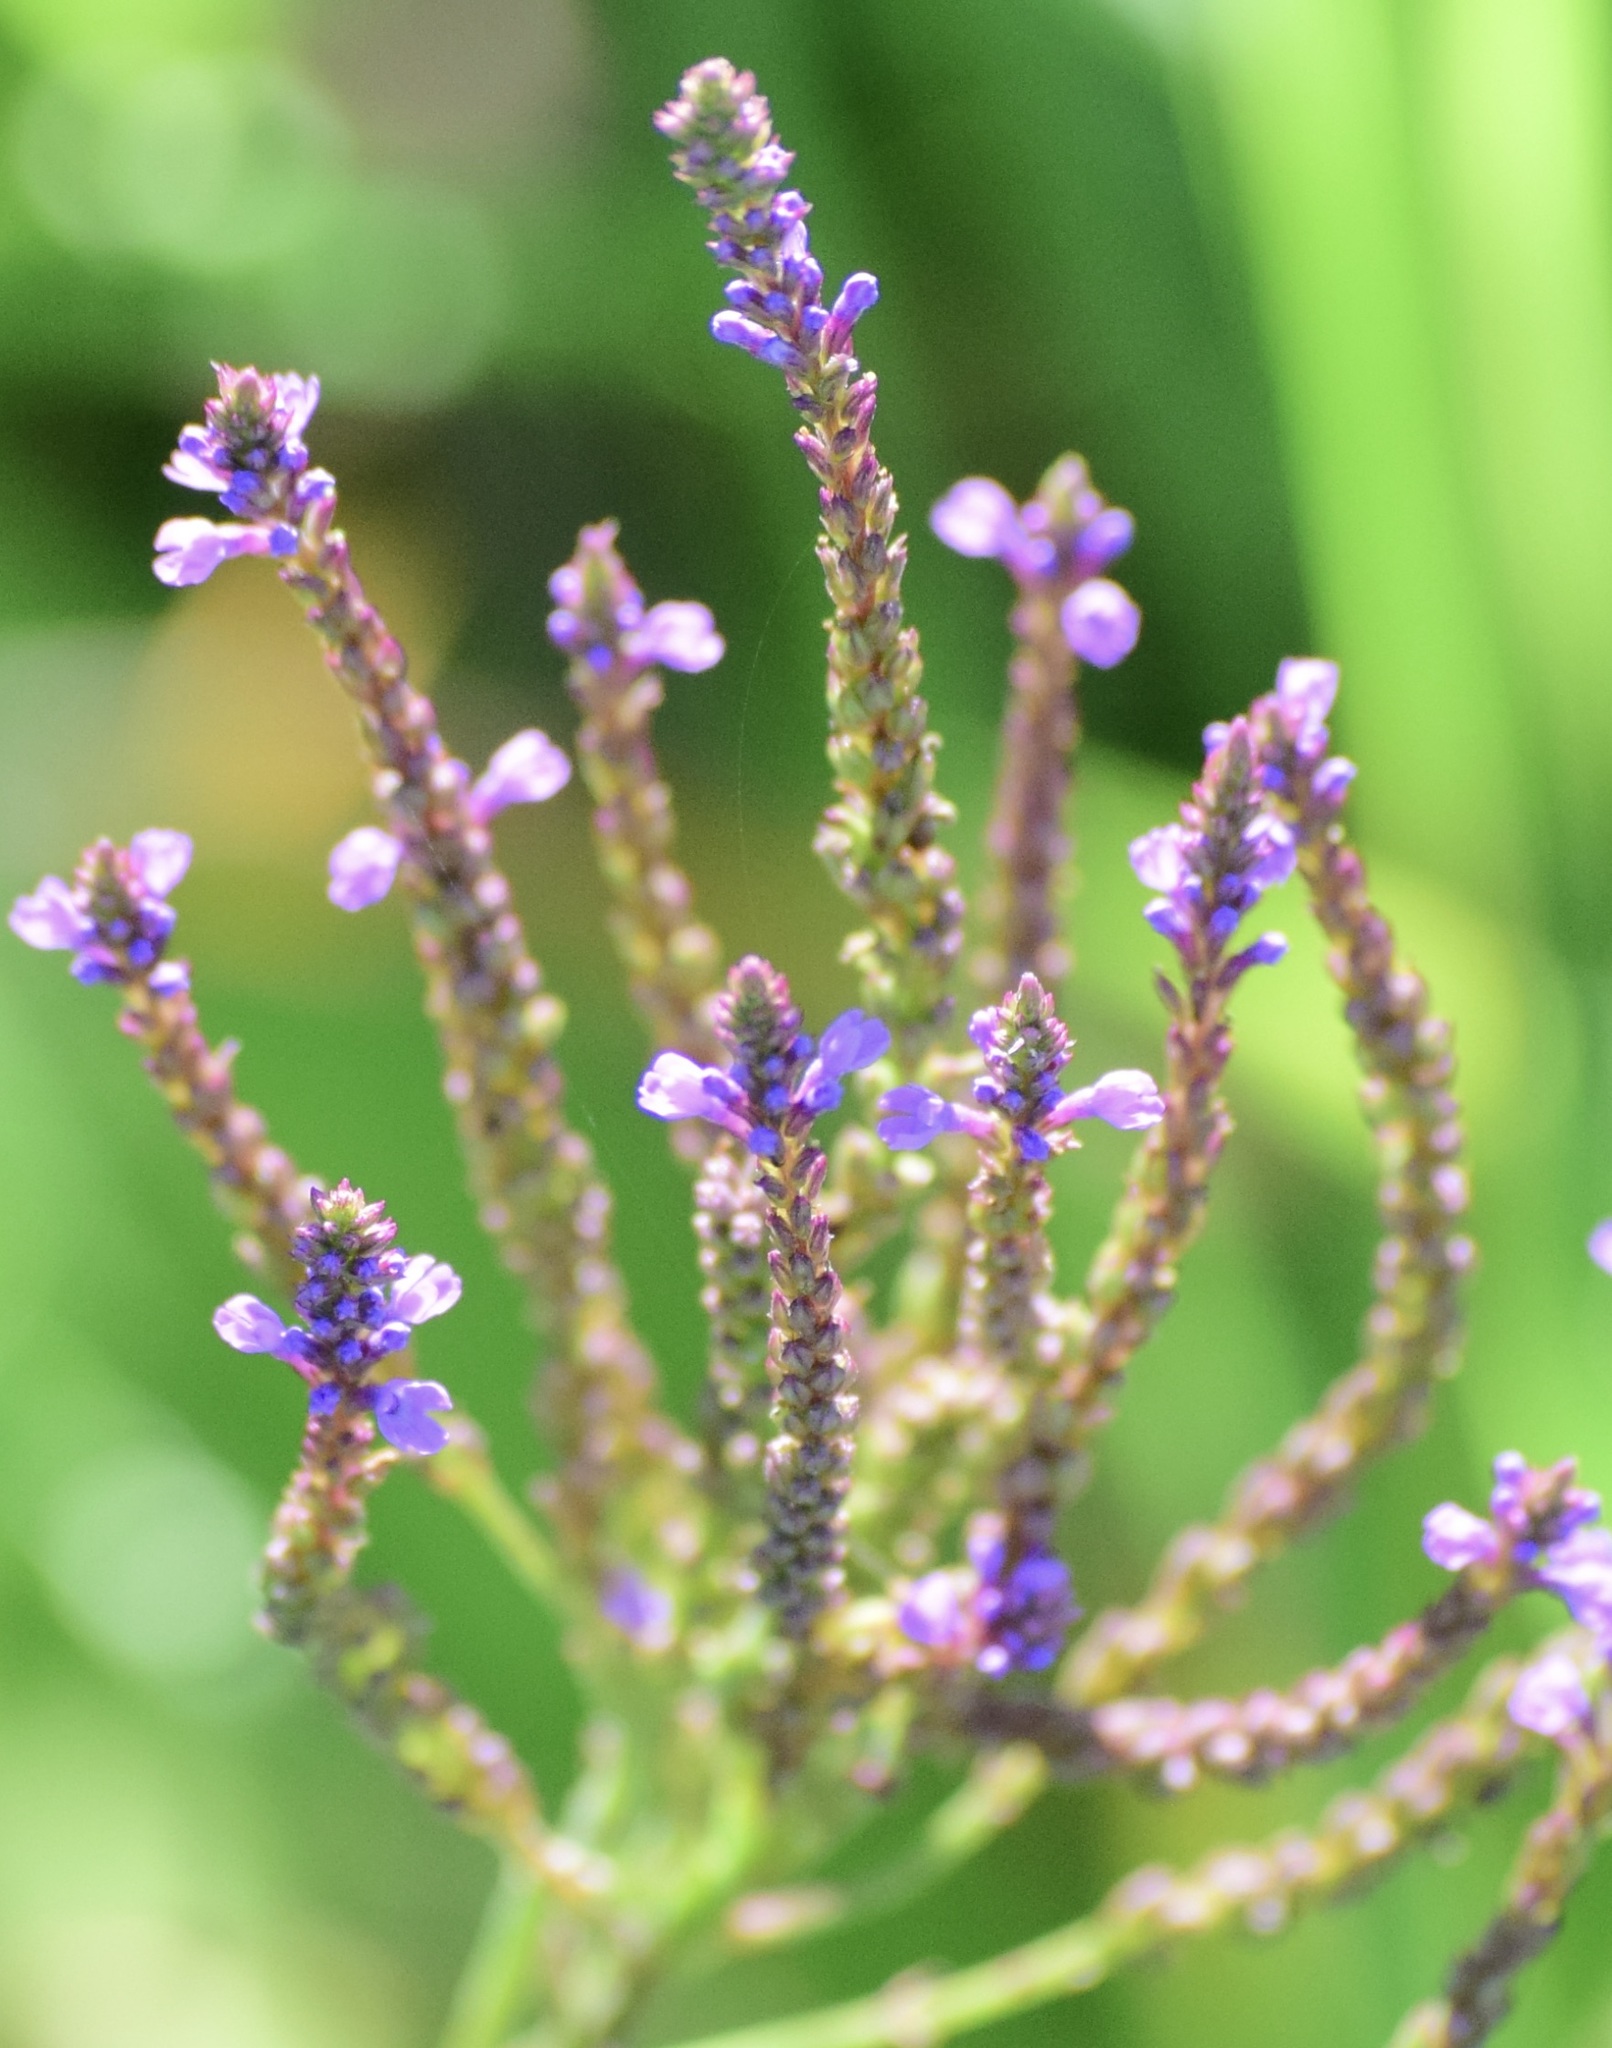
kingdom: Plantae
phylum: Tracheophyta
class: Magnoliopsida
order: Lamiales
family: Verbenaceae
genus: Verbena
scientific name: Verbena hastata
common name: American blue vervain
